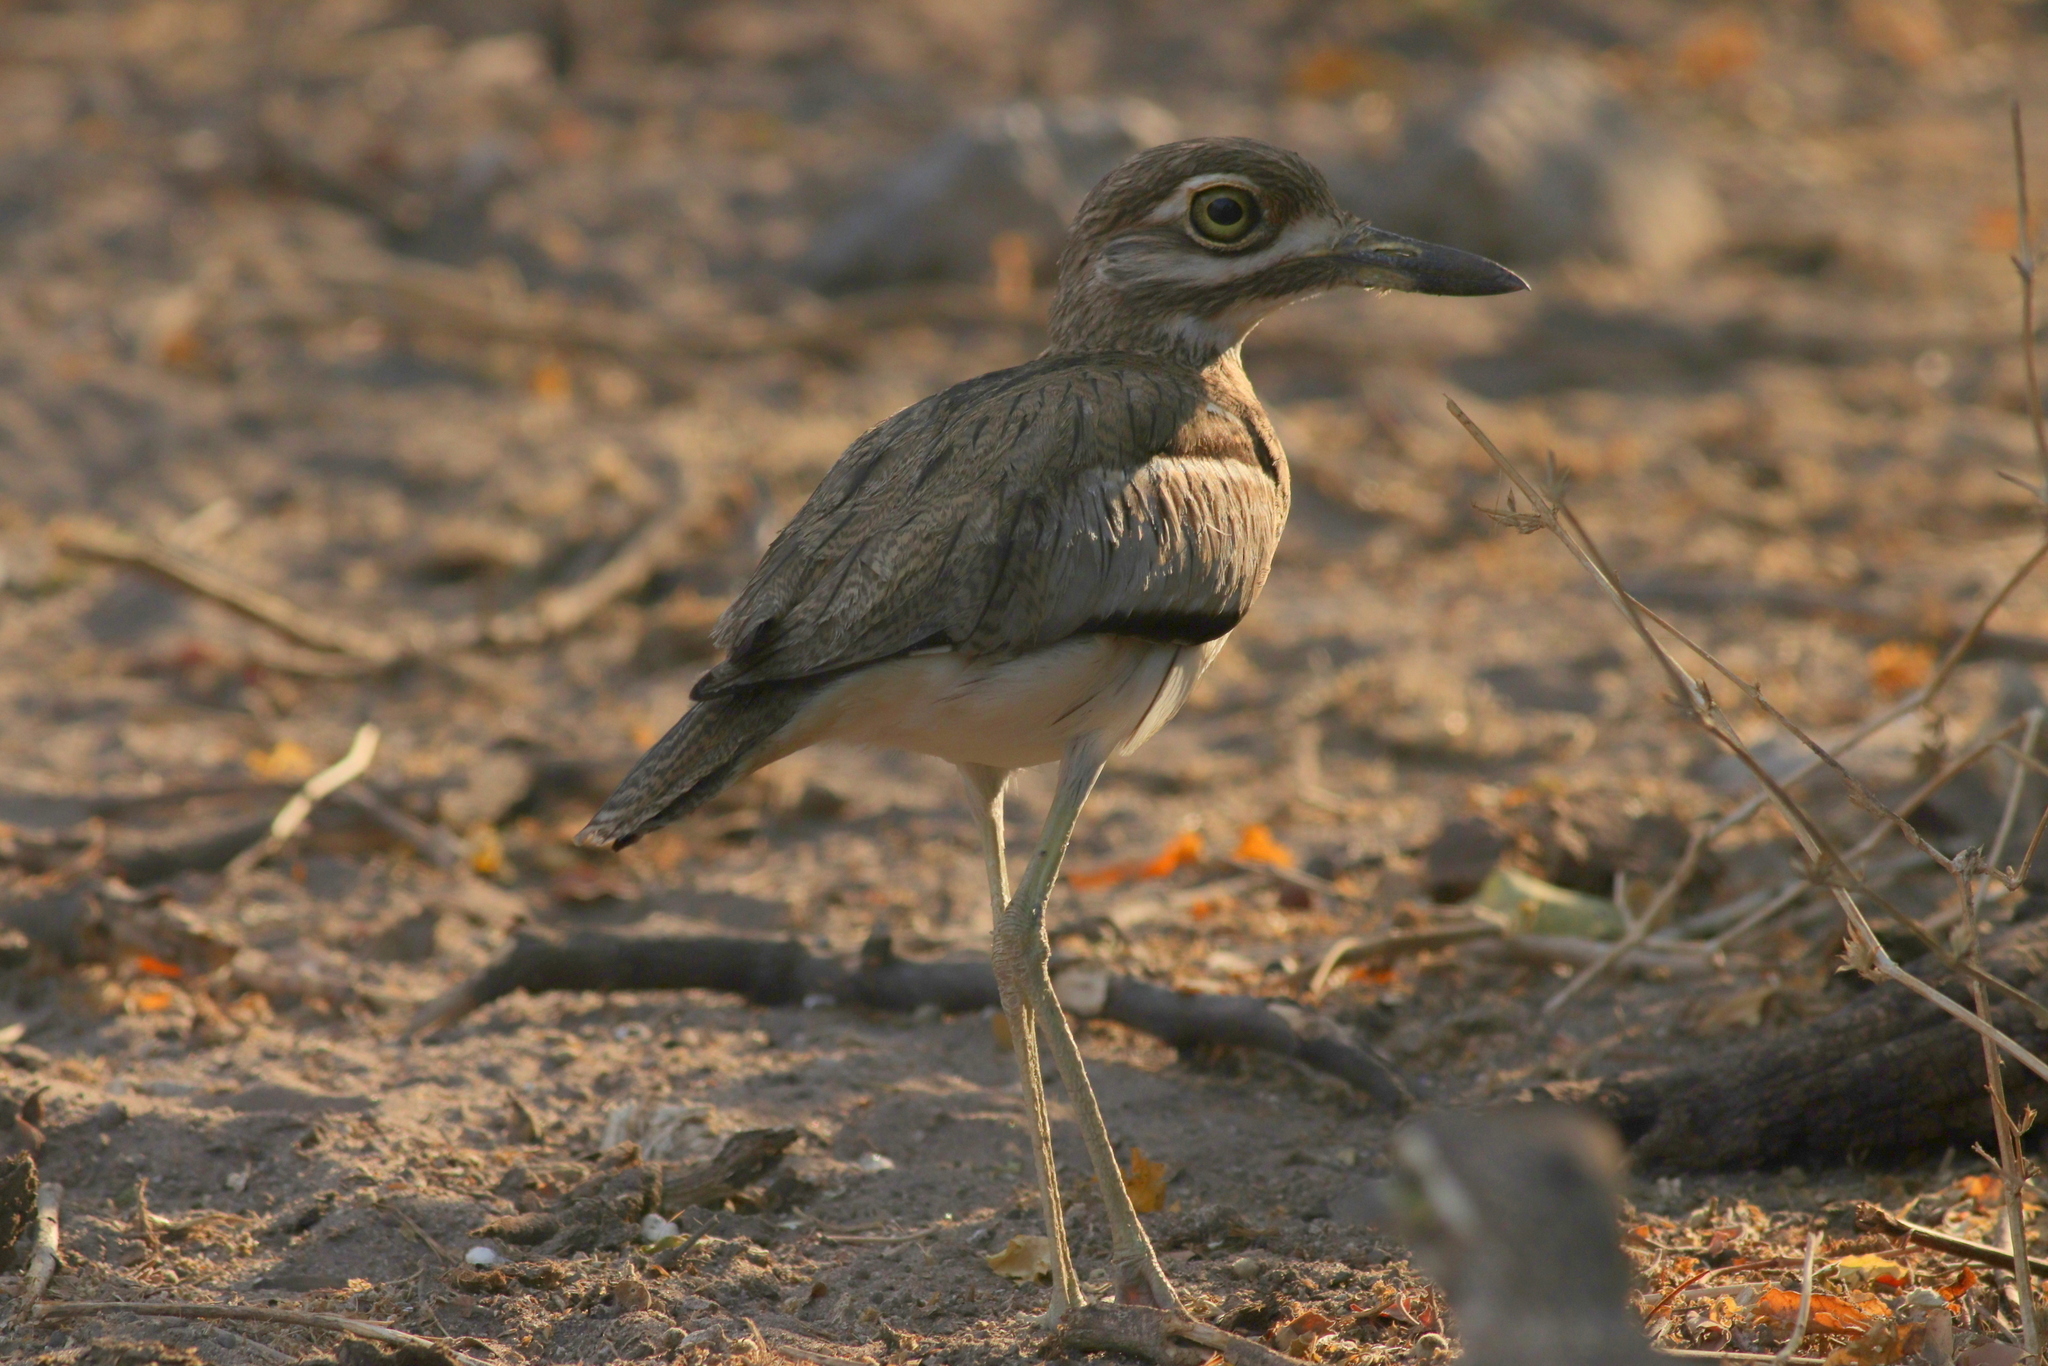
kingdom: Animalia
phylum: Chordata
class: Aves
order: Charadriiformes
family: Burhinidae
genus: Burhinus
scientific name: Burhinus vermiculatus
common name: Water thick-knee
